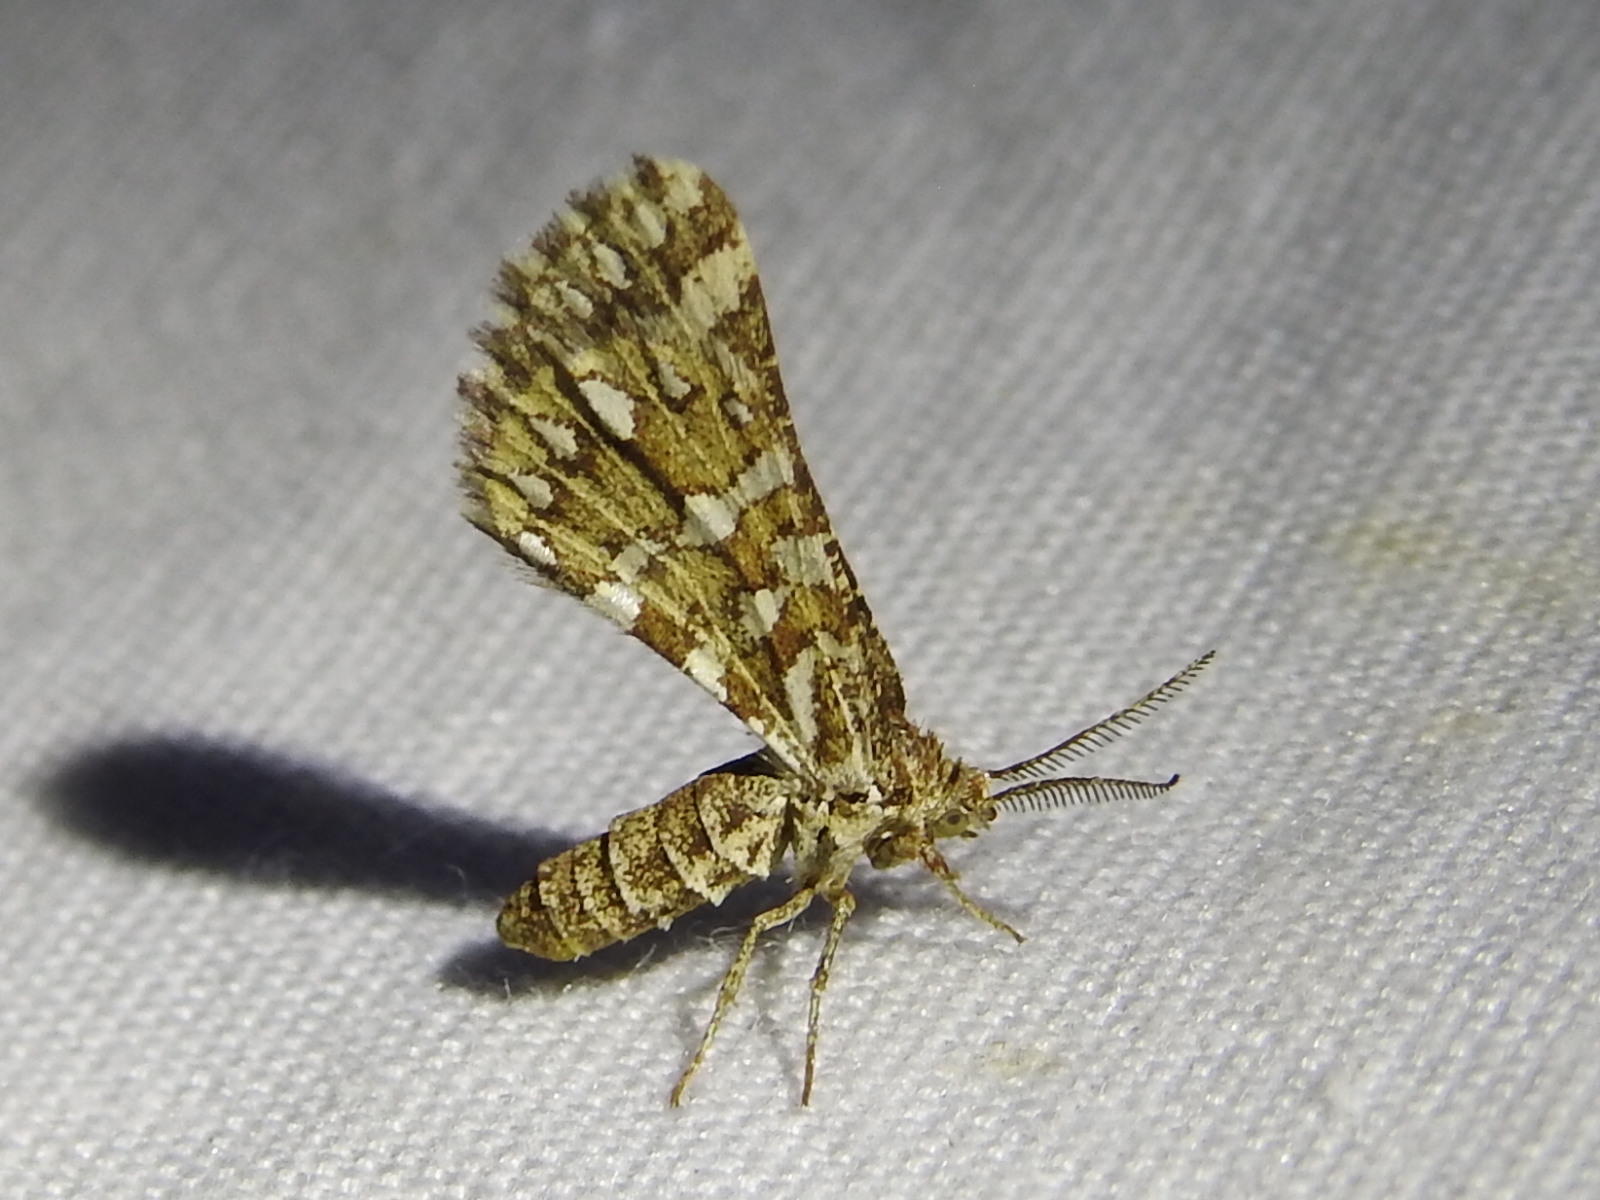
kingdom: Animalia
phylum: Arthropoda
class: Insecta
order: Lepidoptera
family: Geometridae
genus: Narraga
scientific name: Narraga fimetaria
